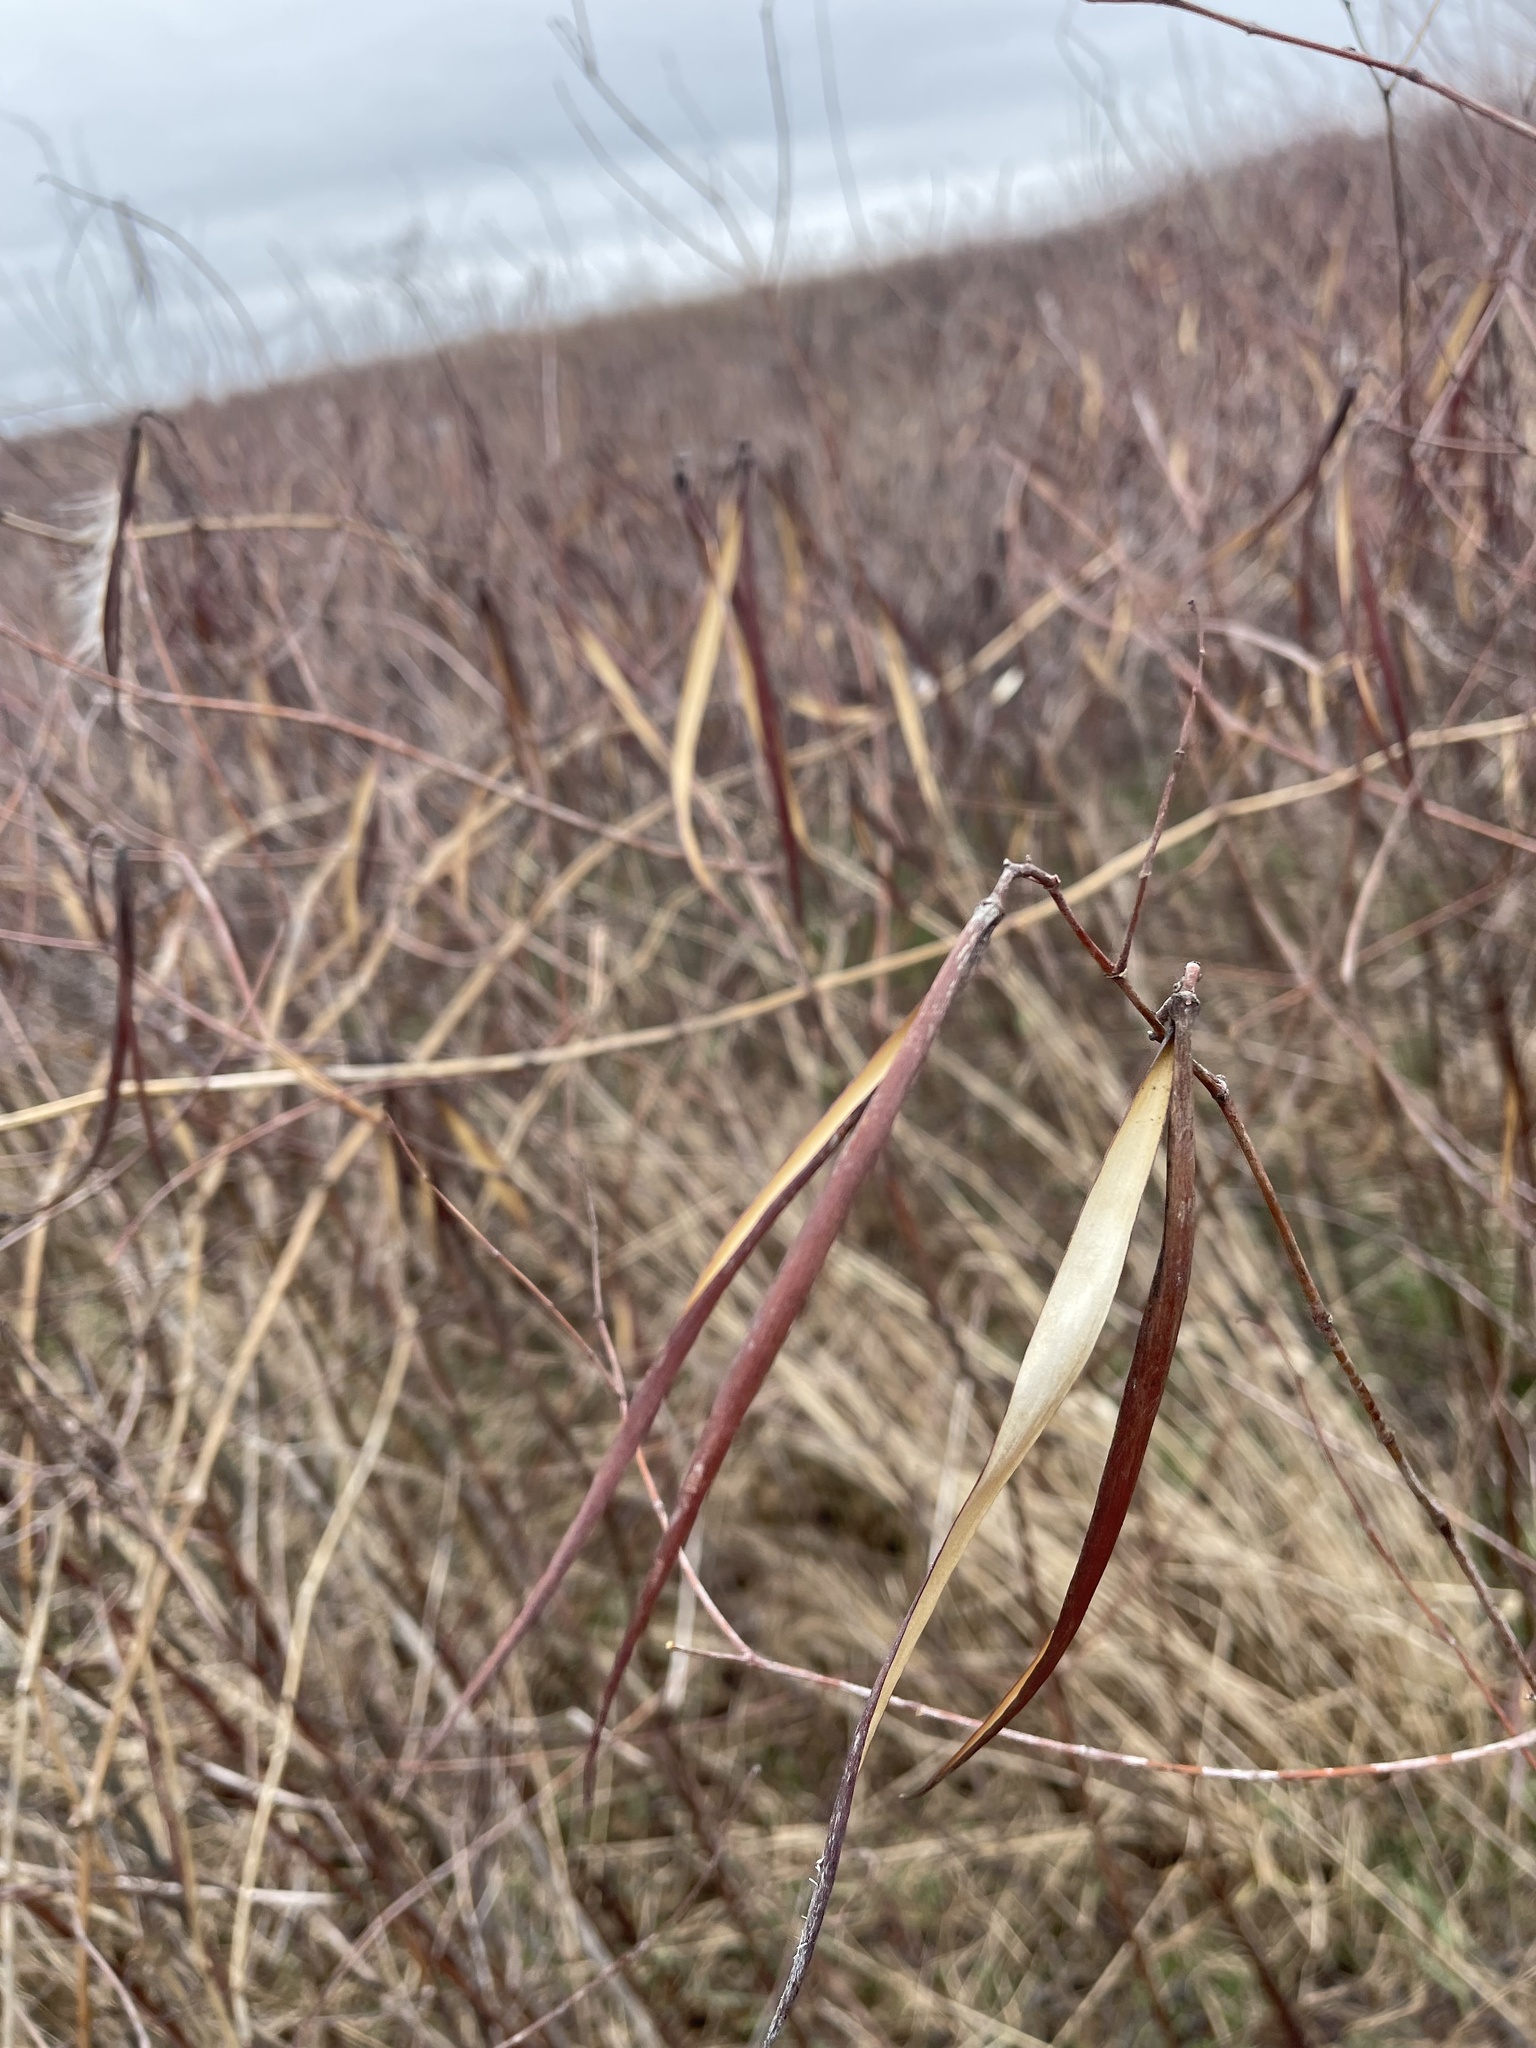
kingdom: Plantae
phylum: Tracheophyta
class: Magnoliopsida
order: Gentianales
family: Apocynaceae
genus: Apocynum
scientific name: Apocynum cannabinum
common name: Hemp dogbane
